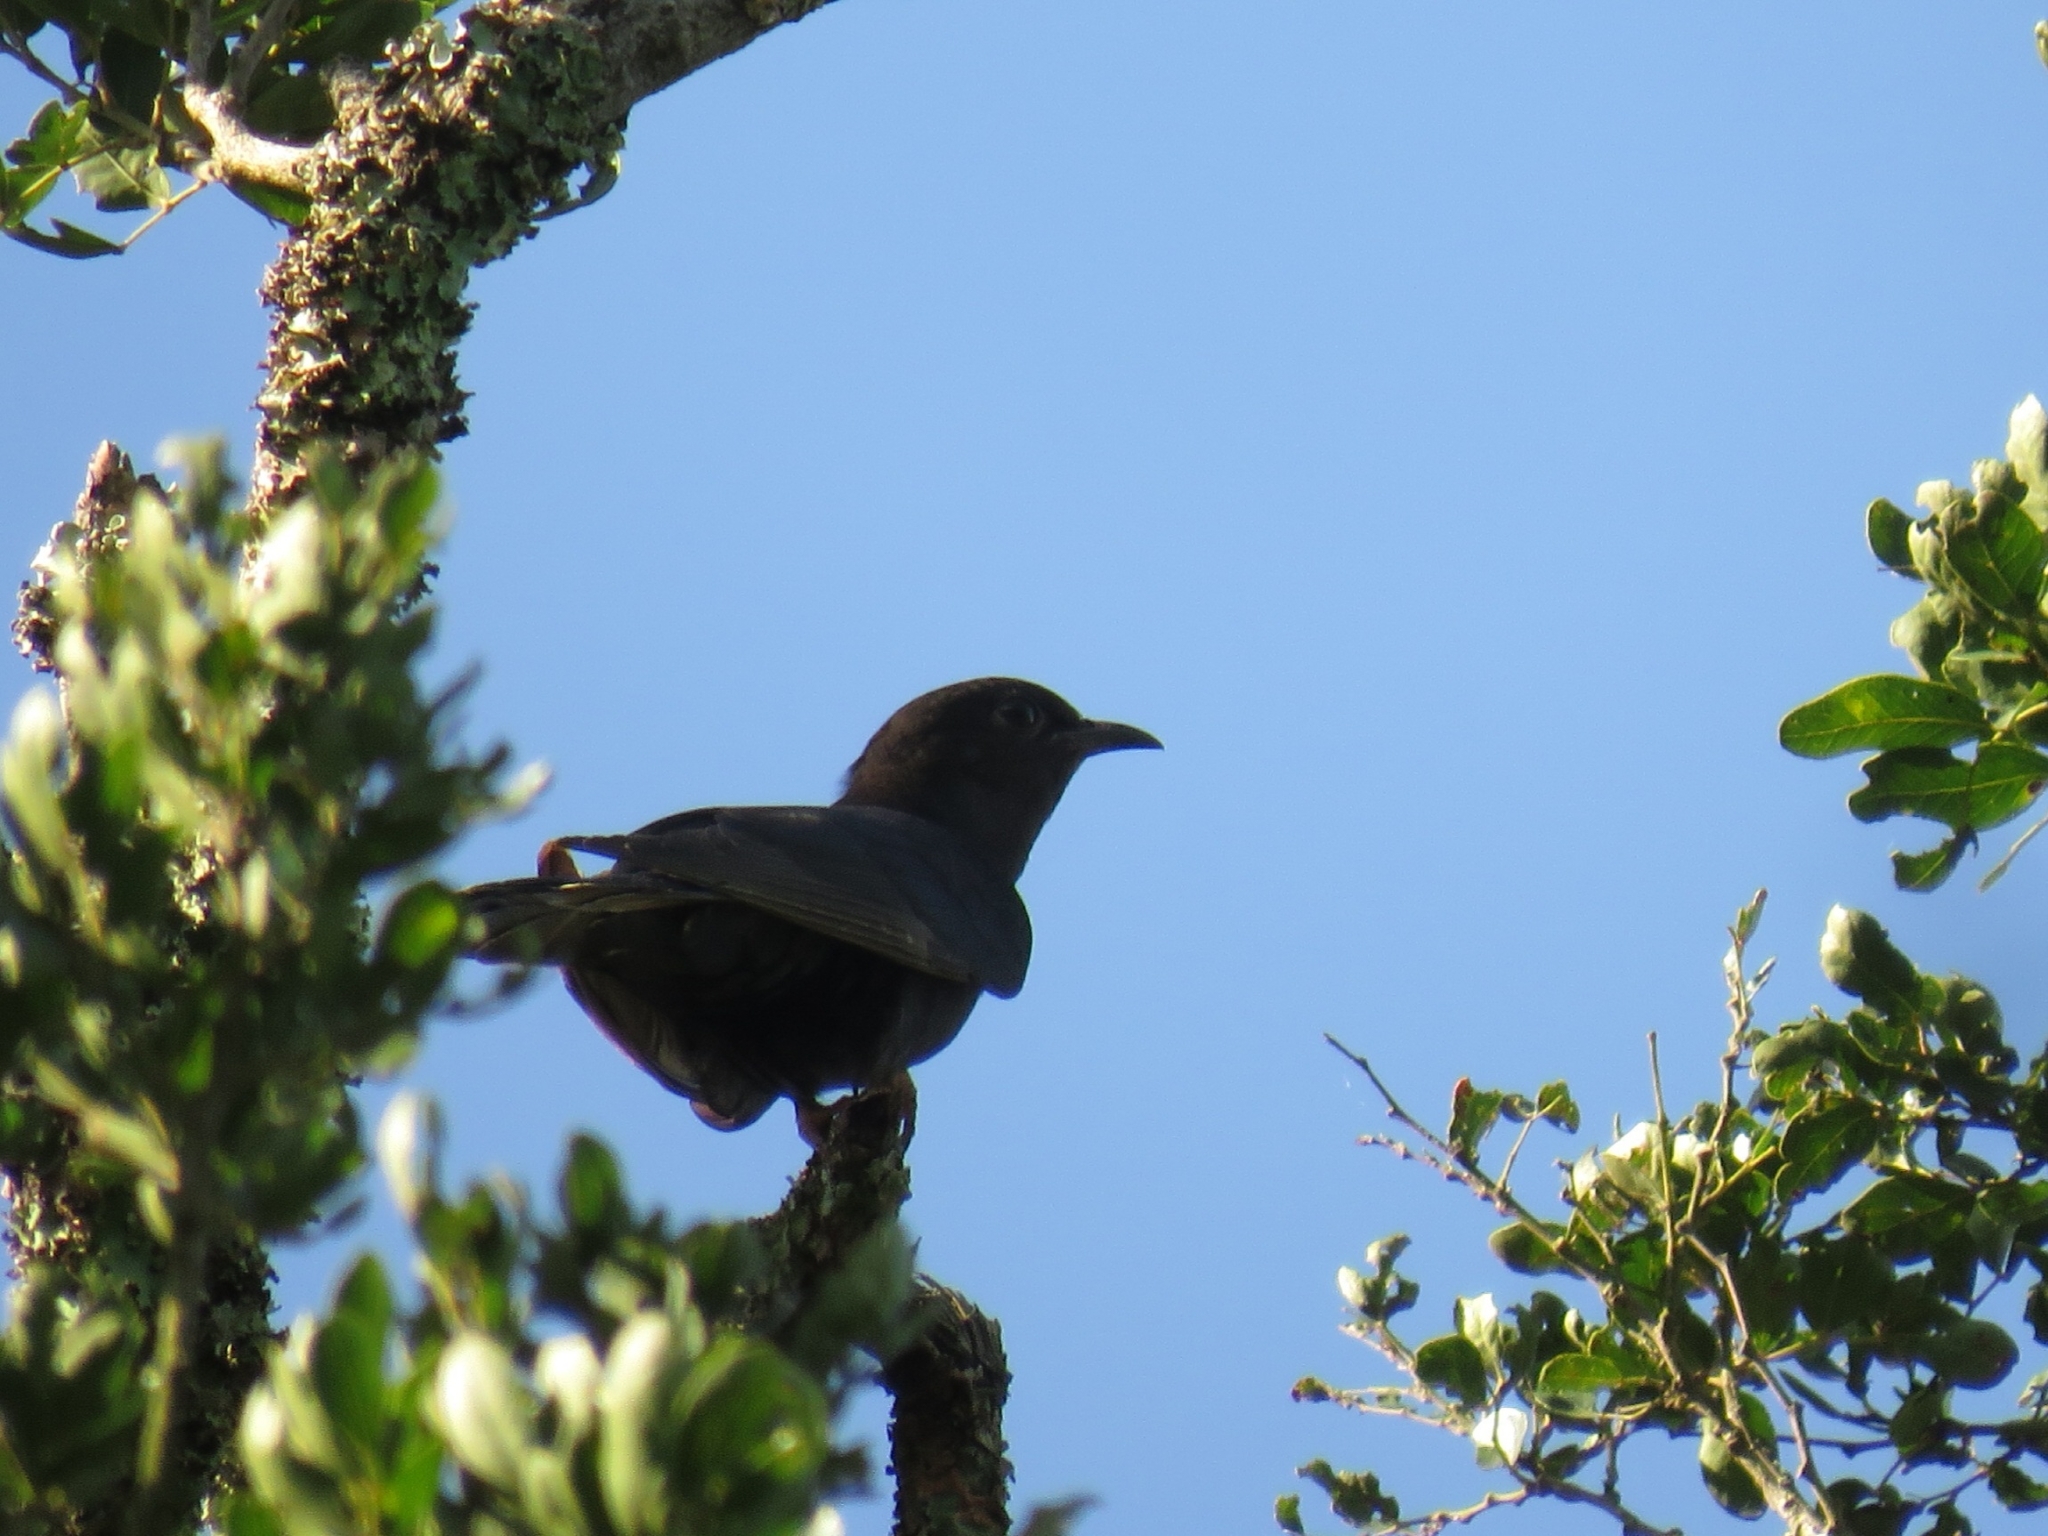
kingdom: Animalia
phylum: Chordata
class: Aves
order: Cuculiformes
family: Cuculidae
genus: Cuculus
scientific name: Cuculus clamosus
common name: Black cuckoo
